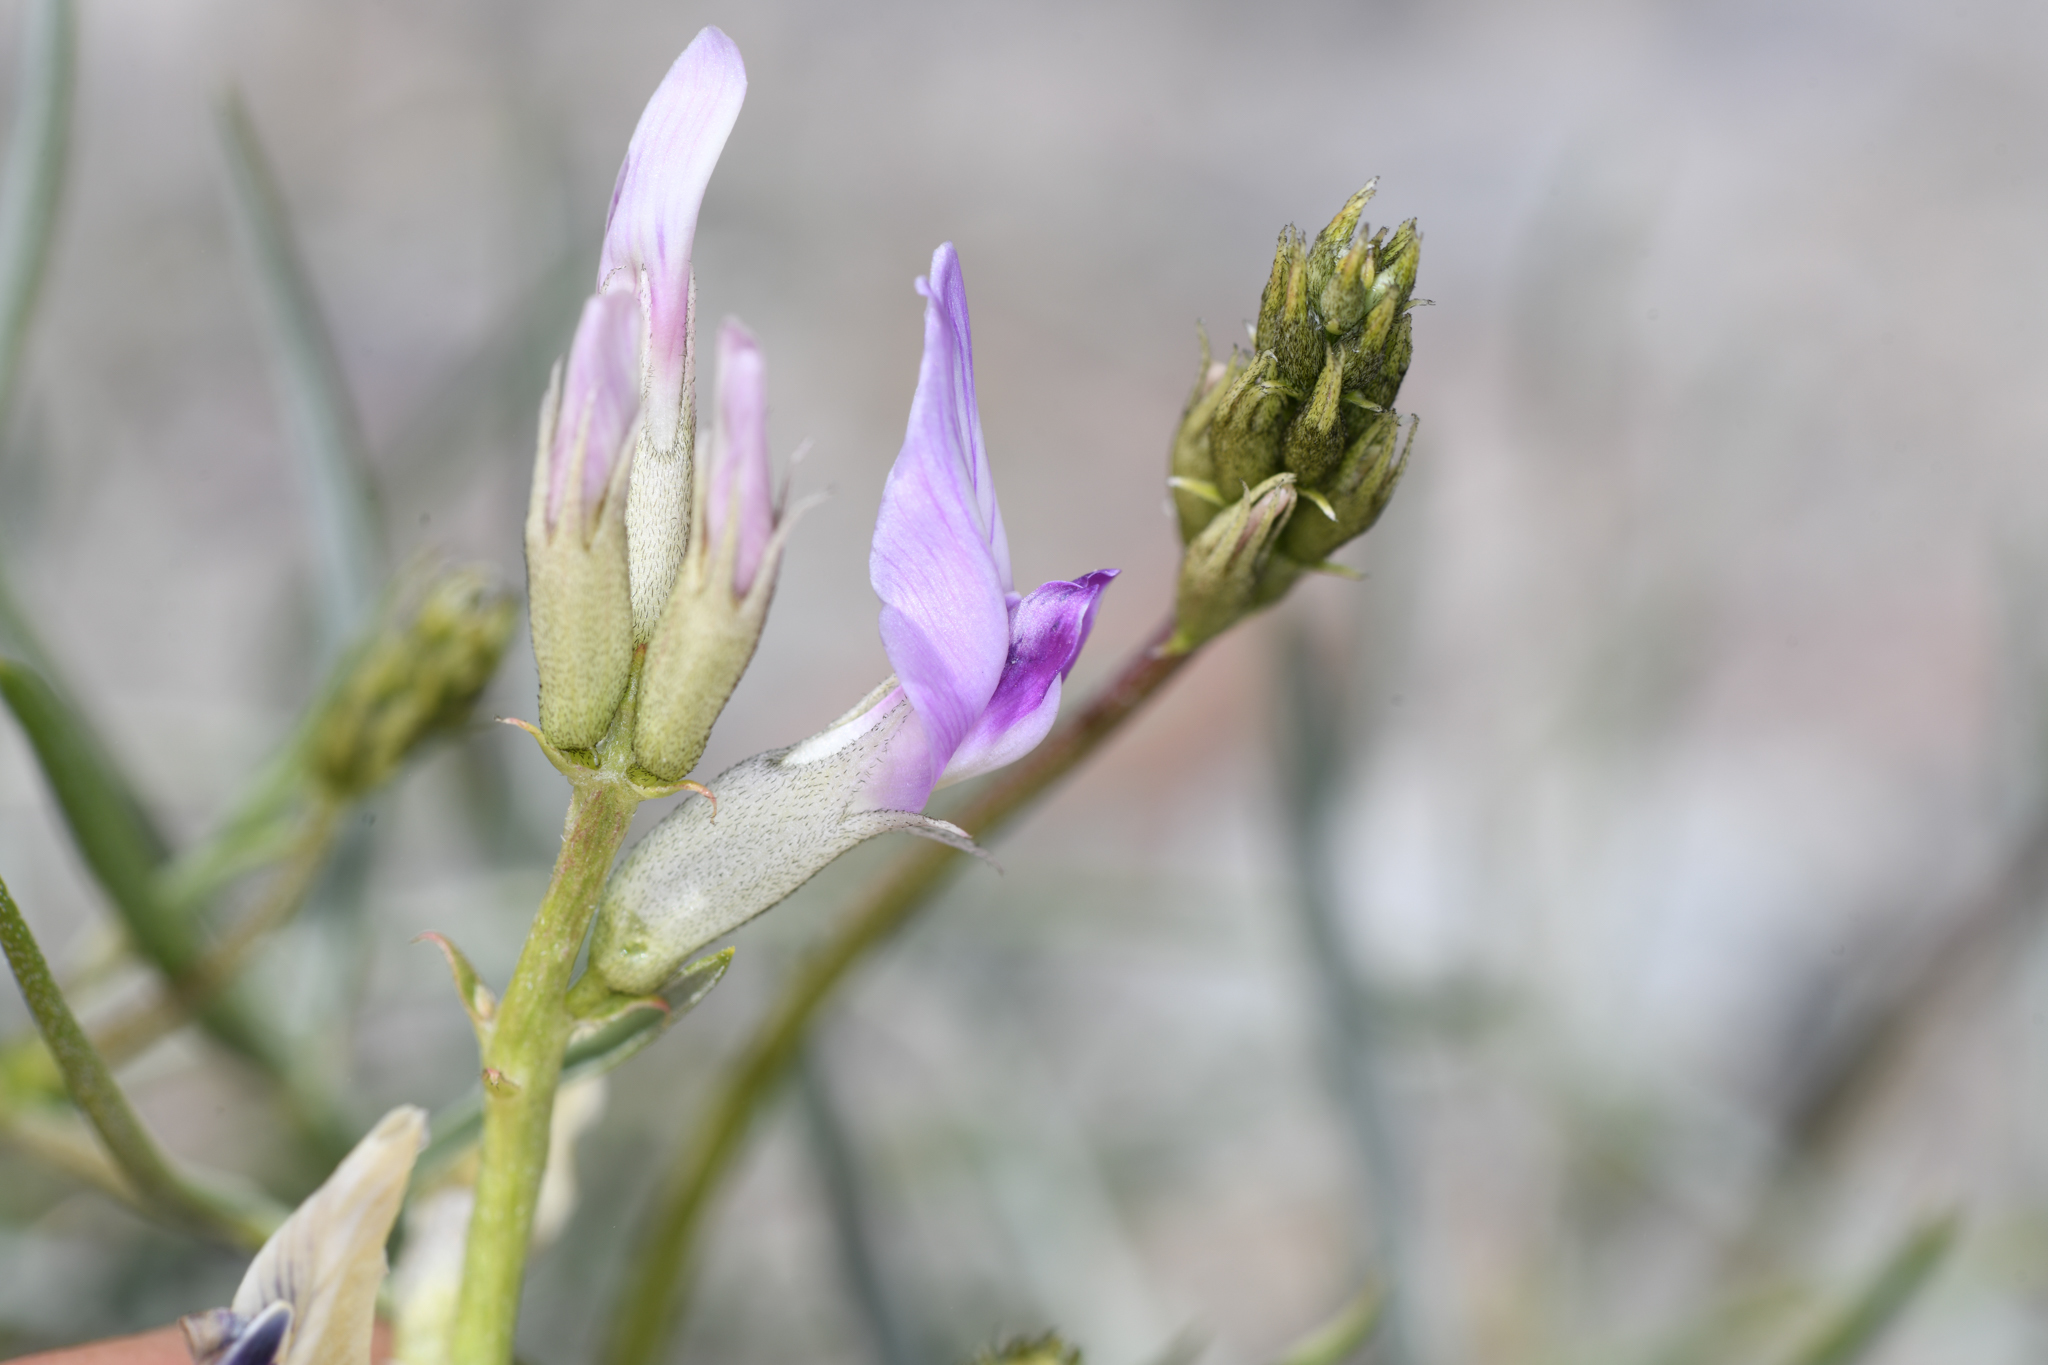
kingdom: Plantae
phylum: Tracheophyta
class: Magnoliopsida
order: Fabales
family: Fabaceae
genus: Astragalus
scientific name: Astragalus serenoi
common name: Naked milk-vetch
